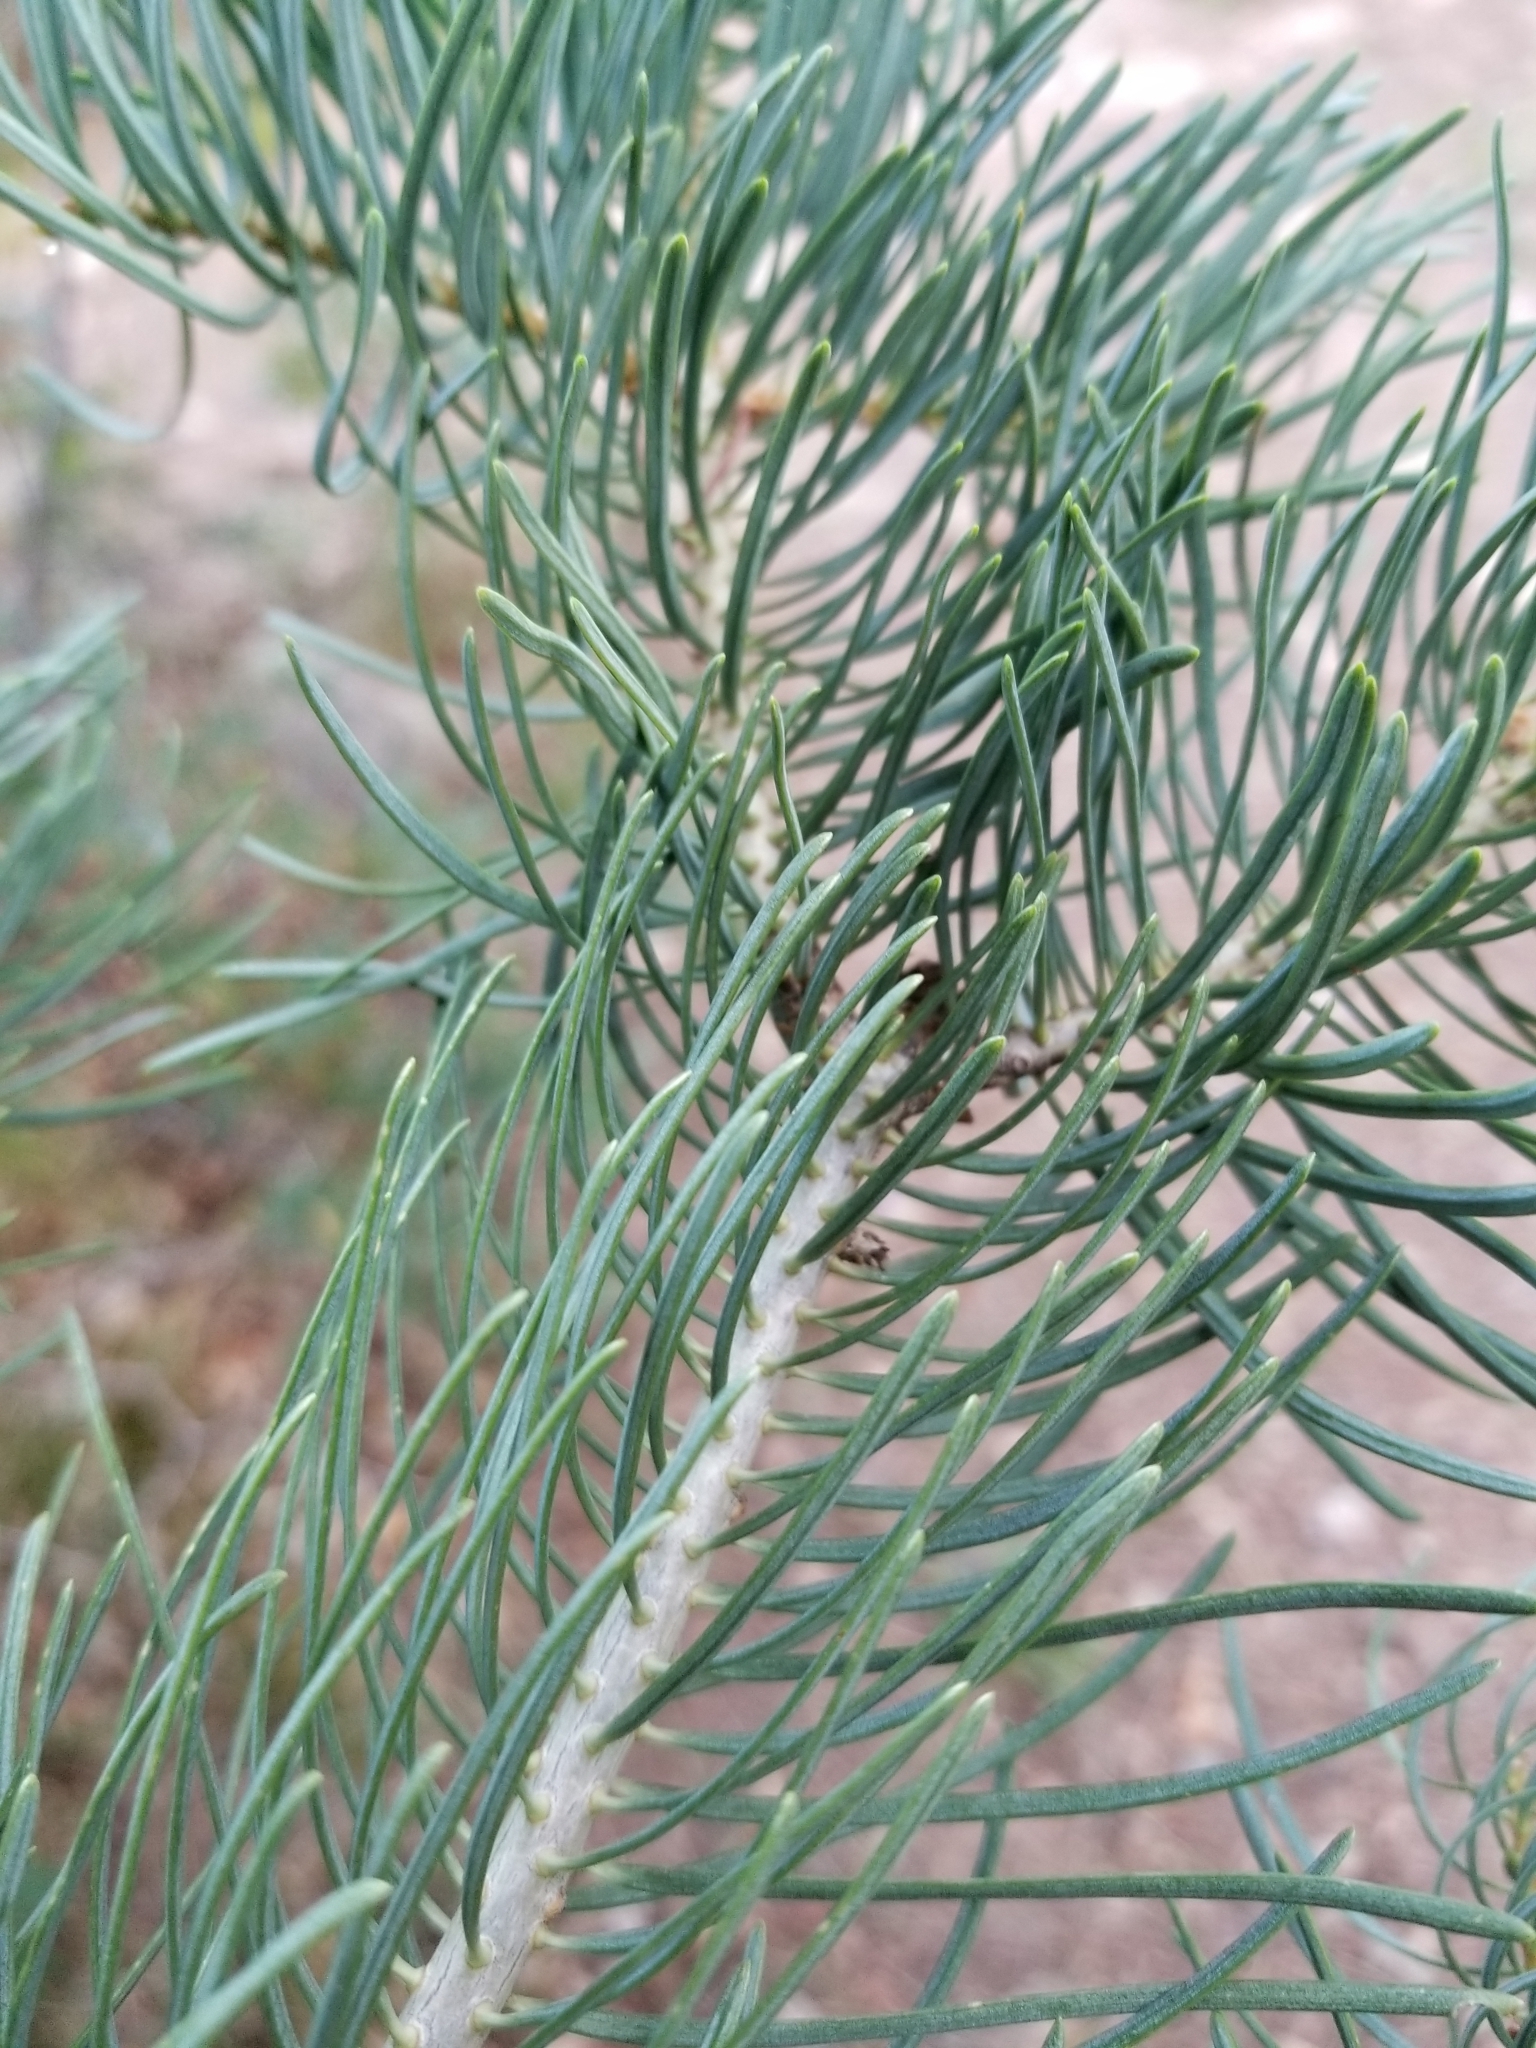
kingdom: Plantae
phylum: Tracheophyta
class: Pinopsida
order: Pinales
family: Pinaceae
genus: Abies
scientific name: Abies concolor
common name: Colorado fir
